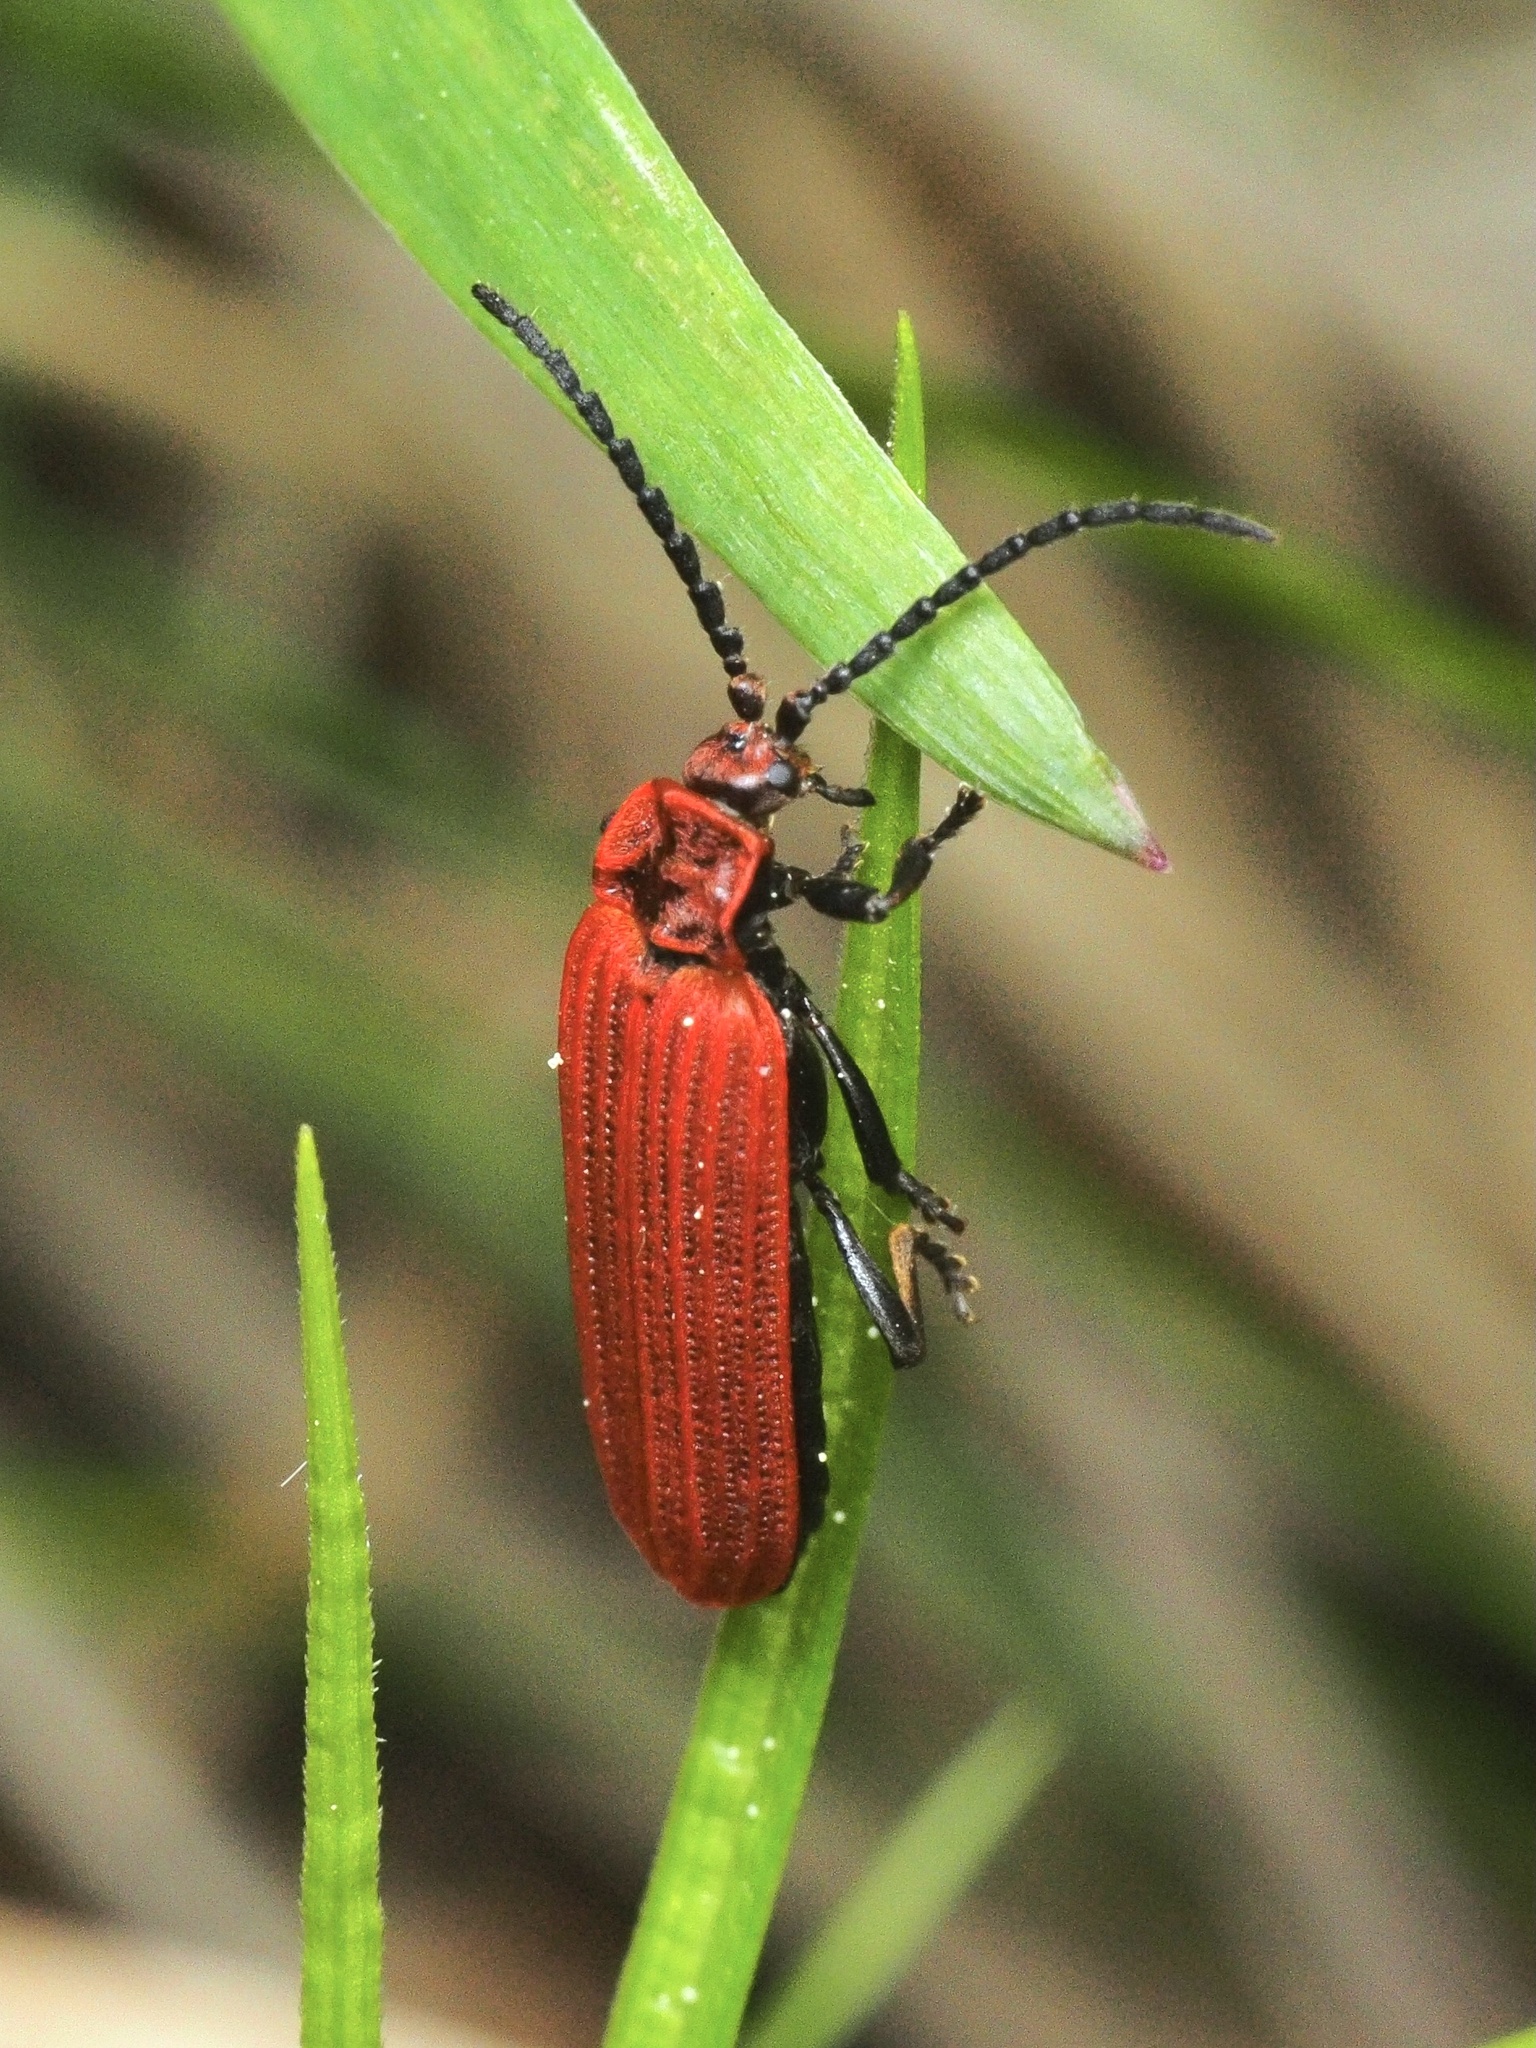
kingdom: Animalia
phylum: Arthropoda
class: Insecta
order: Coleoptera
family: Lycidae
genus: Lopheros
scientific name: Lopheros rubens
